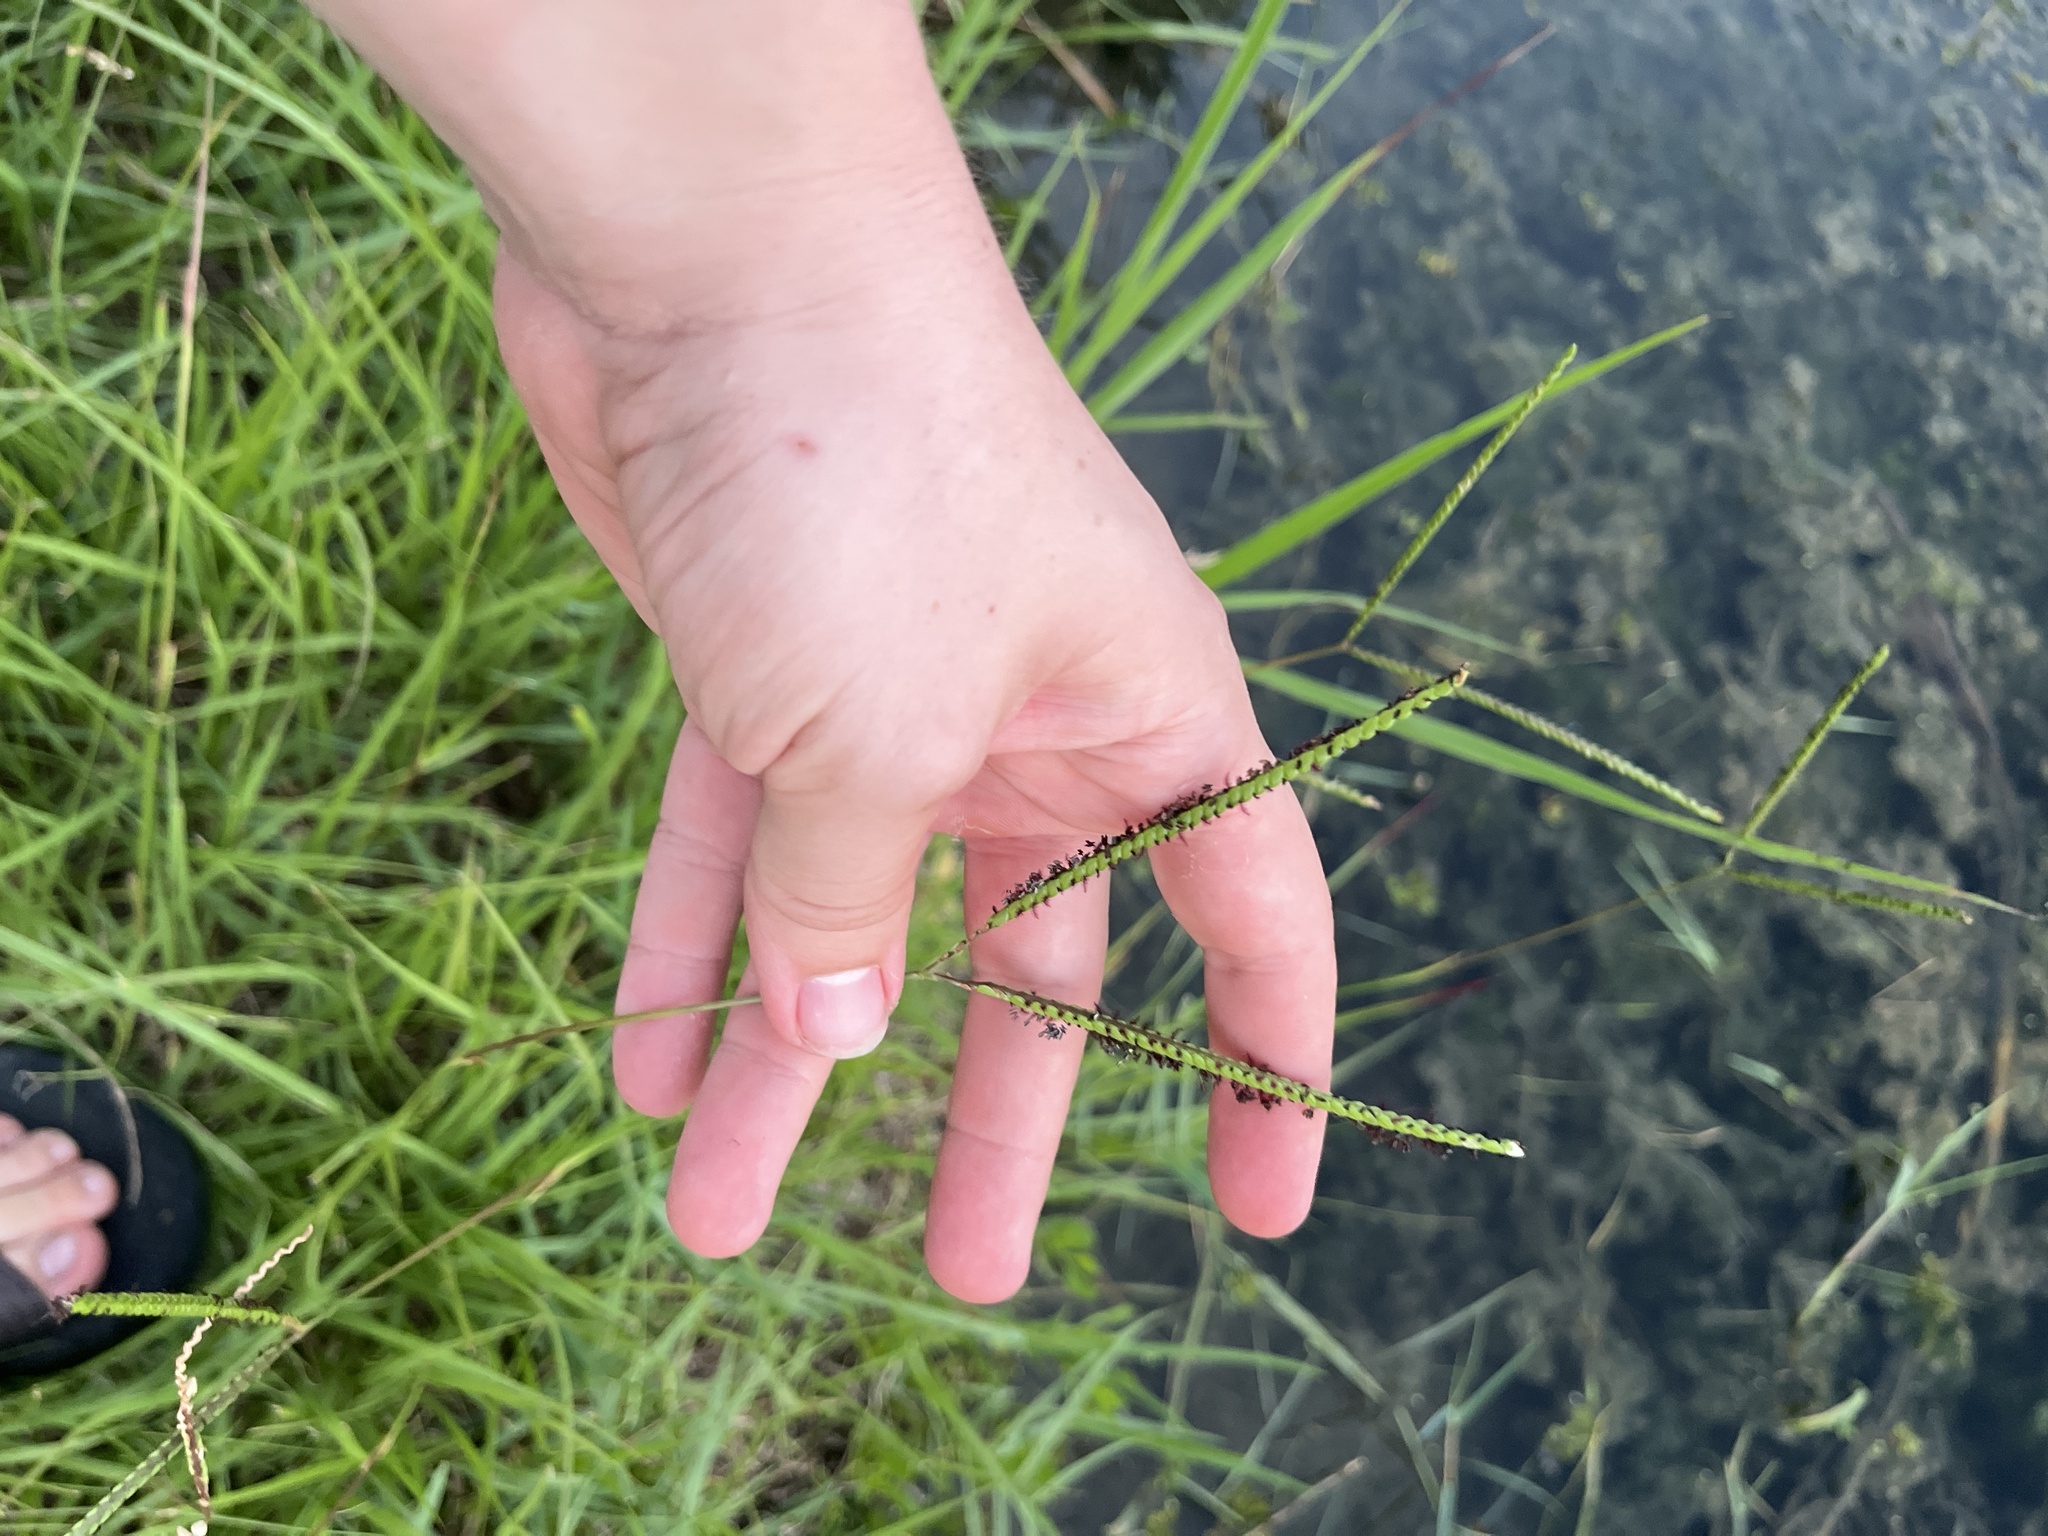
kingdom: Plantae
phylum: Tracheophyta
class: Liliopsida
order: Poales
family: Poaceae
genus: Paspalum
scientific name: Paspalum notatum
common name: Bahiagrass
